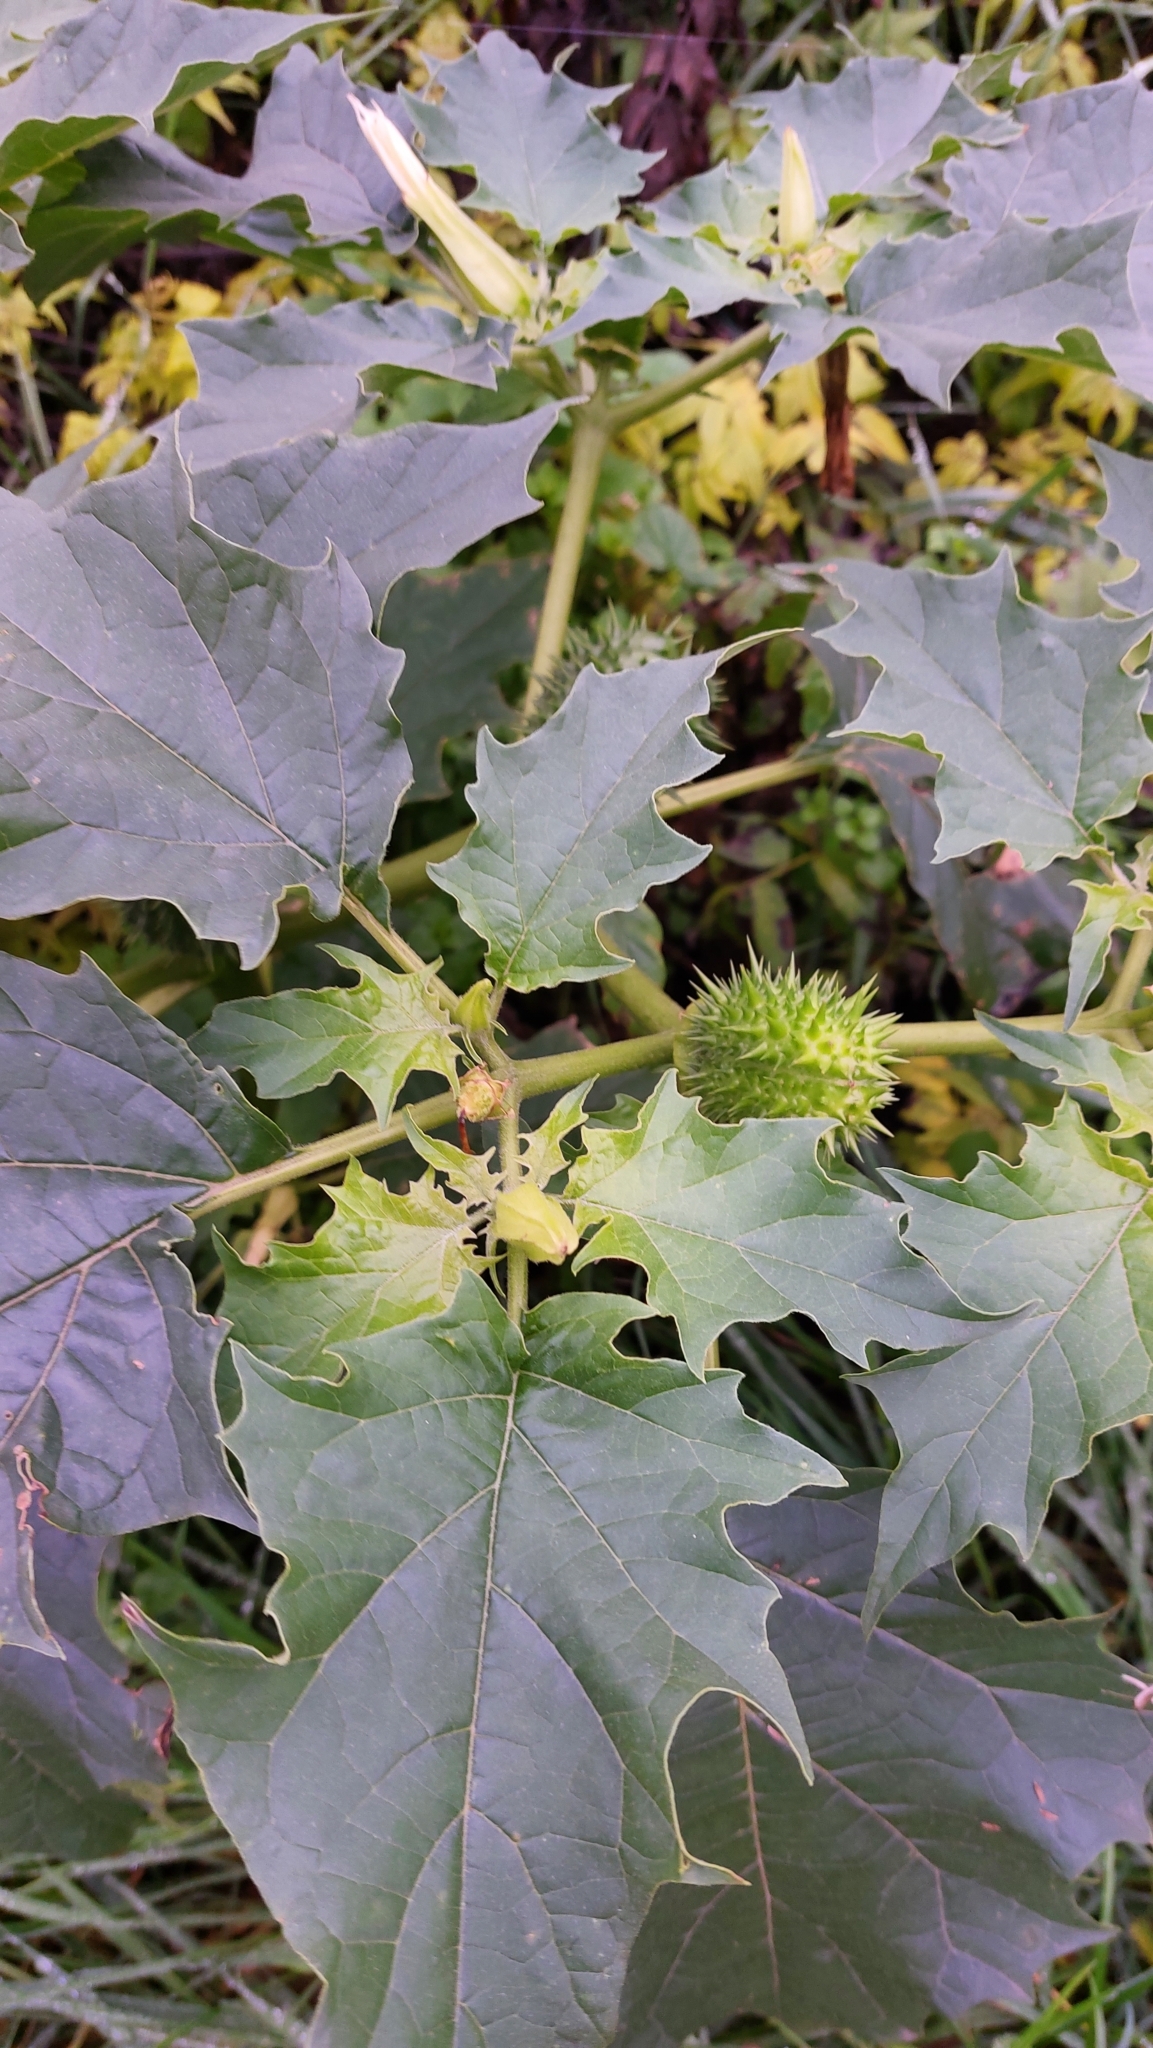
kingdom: Plantae
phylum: Tracheophyta
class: Magnoliopsida
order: Solanales
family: Solanaceae
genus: Datura
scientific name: Datura stramonium
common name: Thorn-apple
